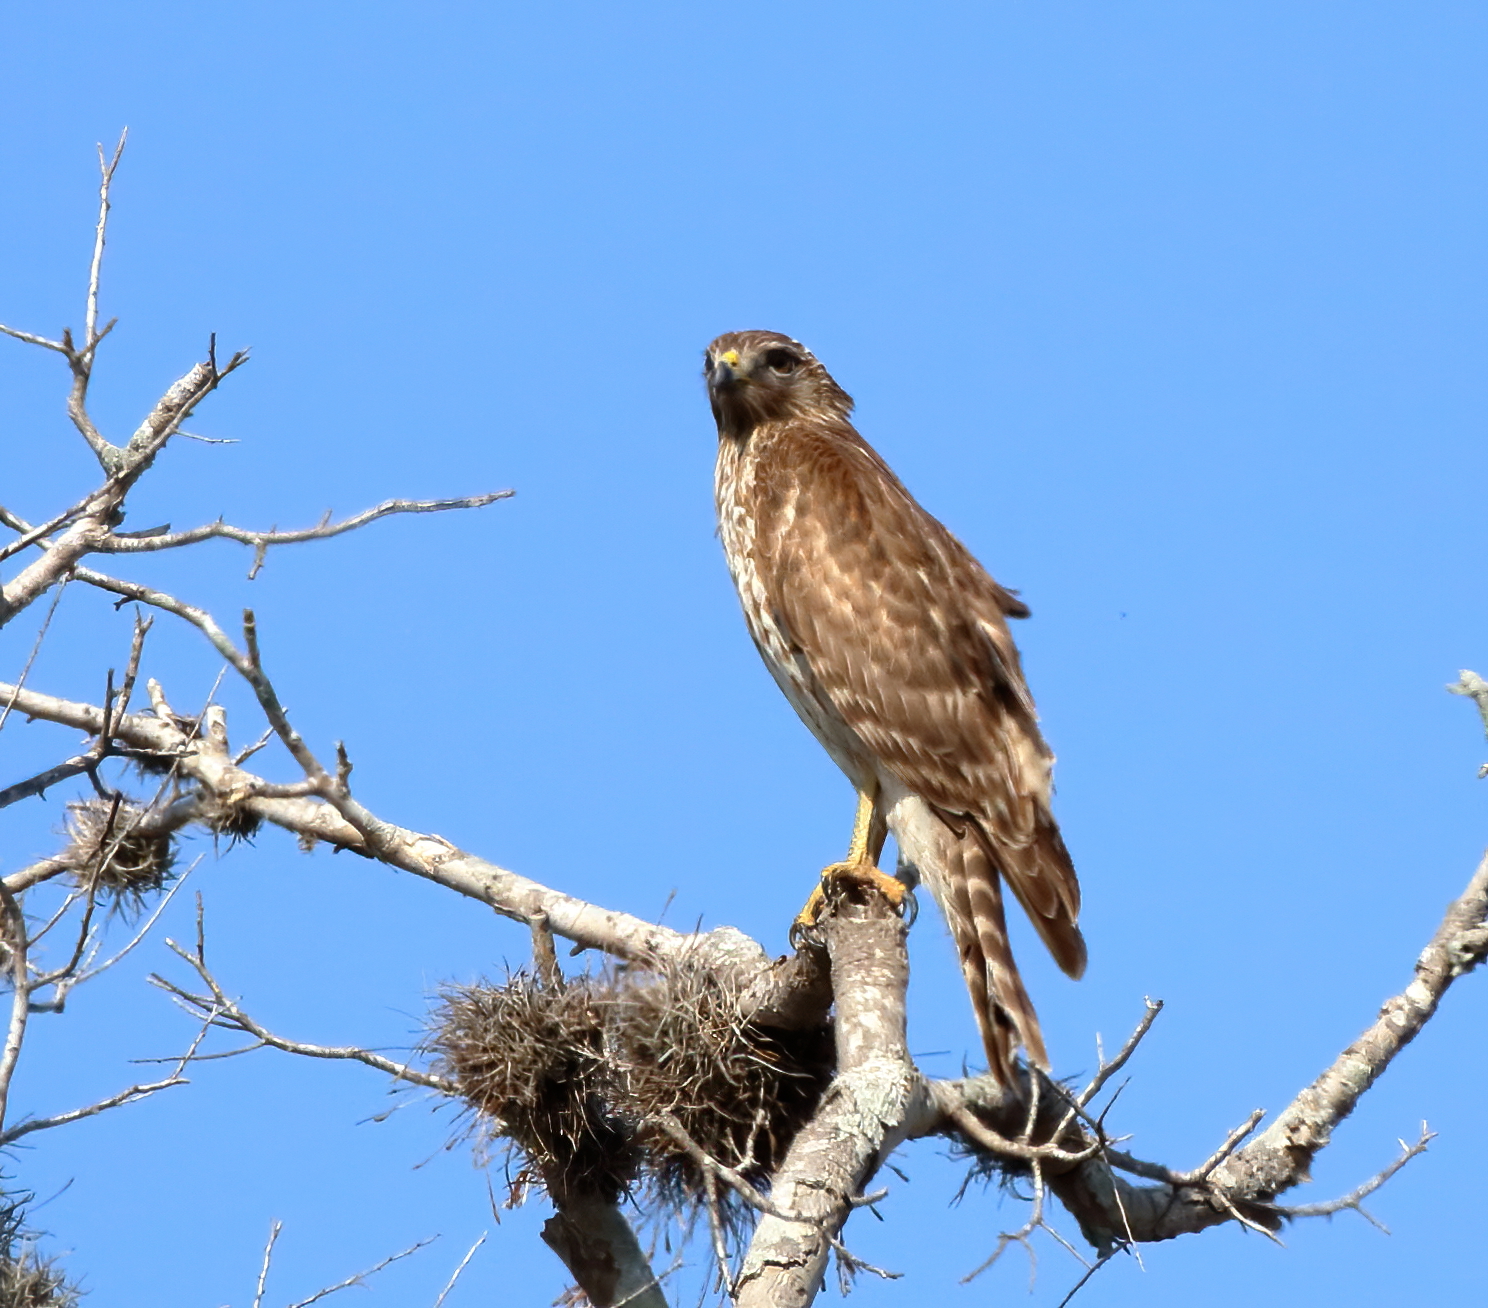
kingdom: Animalia
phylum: Chordata
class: Aves
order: Accipitriformes
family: Accipitridae
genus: Buteo
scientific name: Buteo lineatus
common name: Red-shouldered hawk
